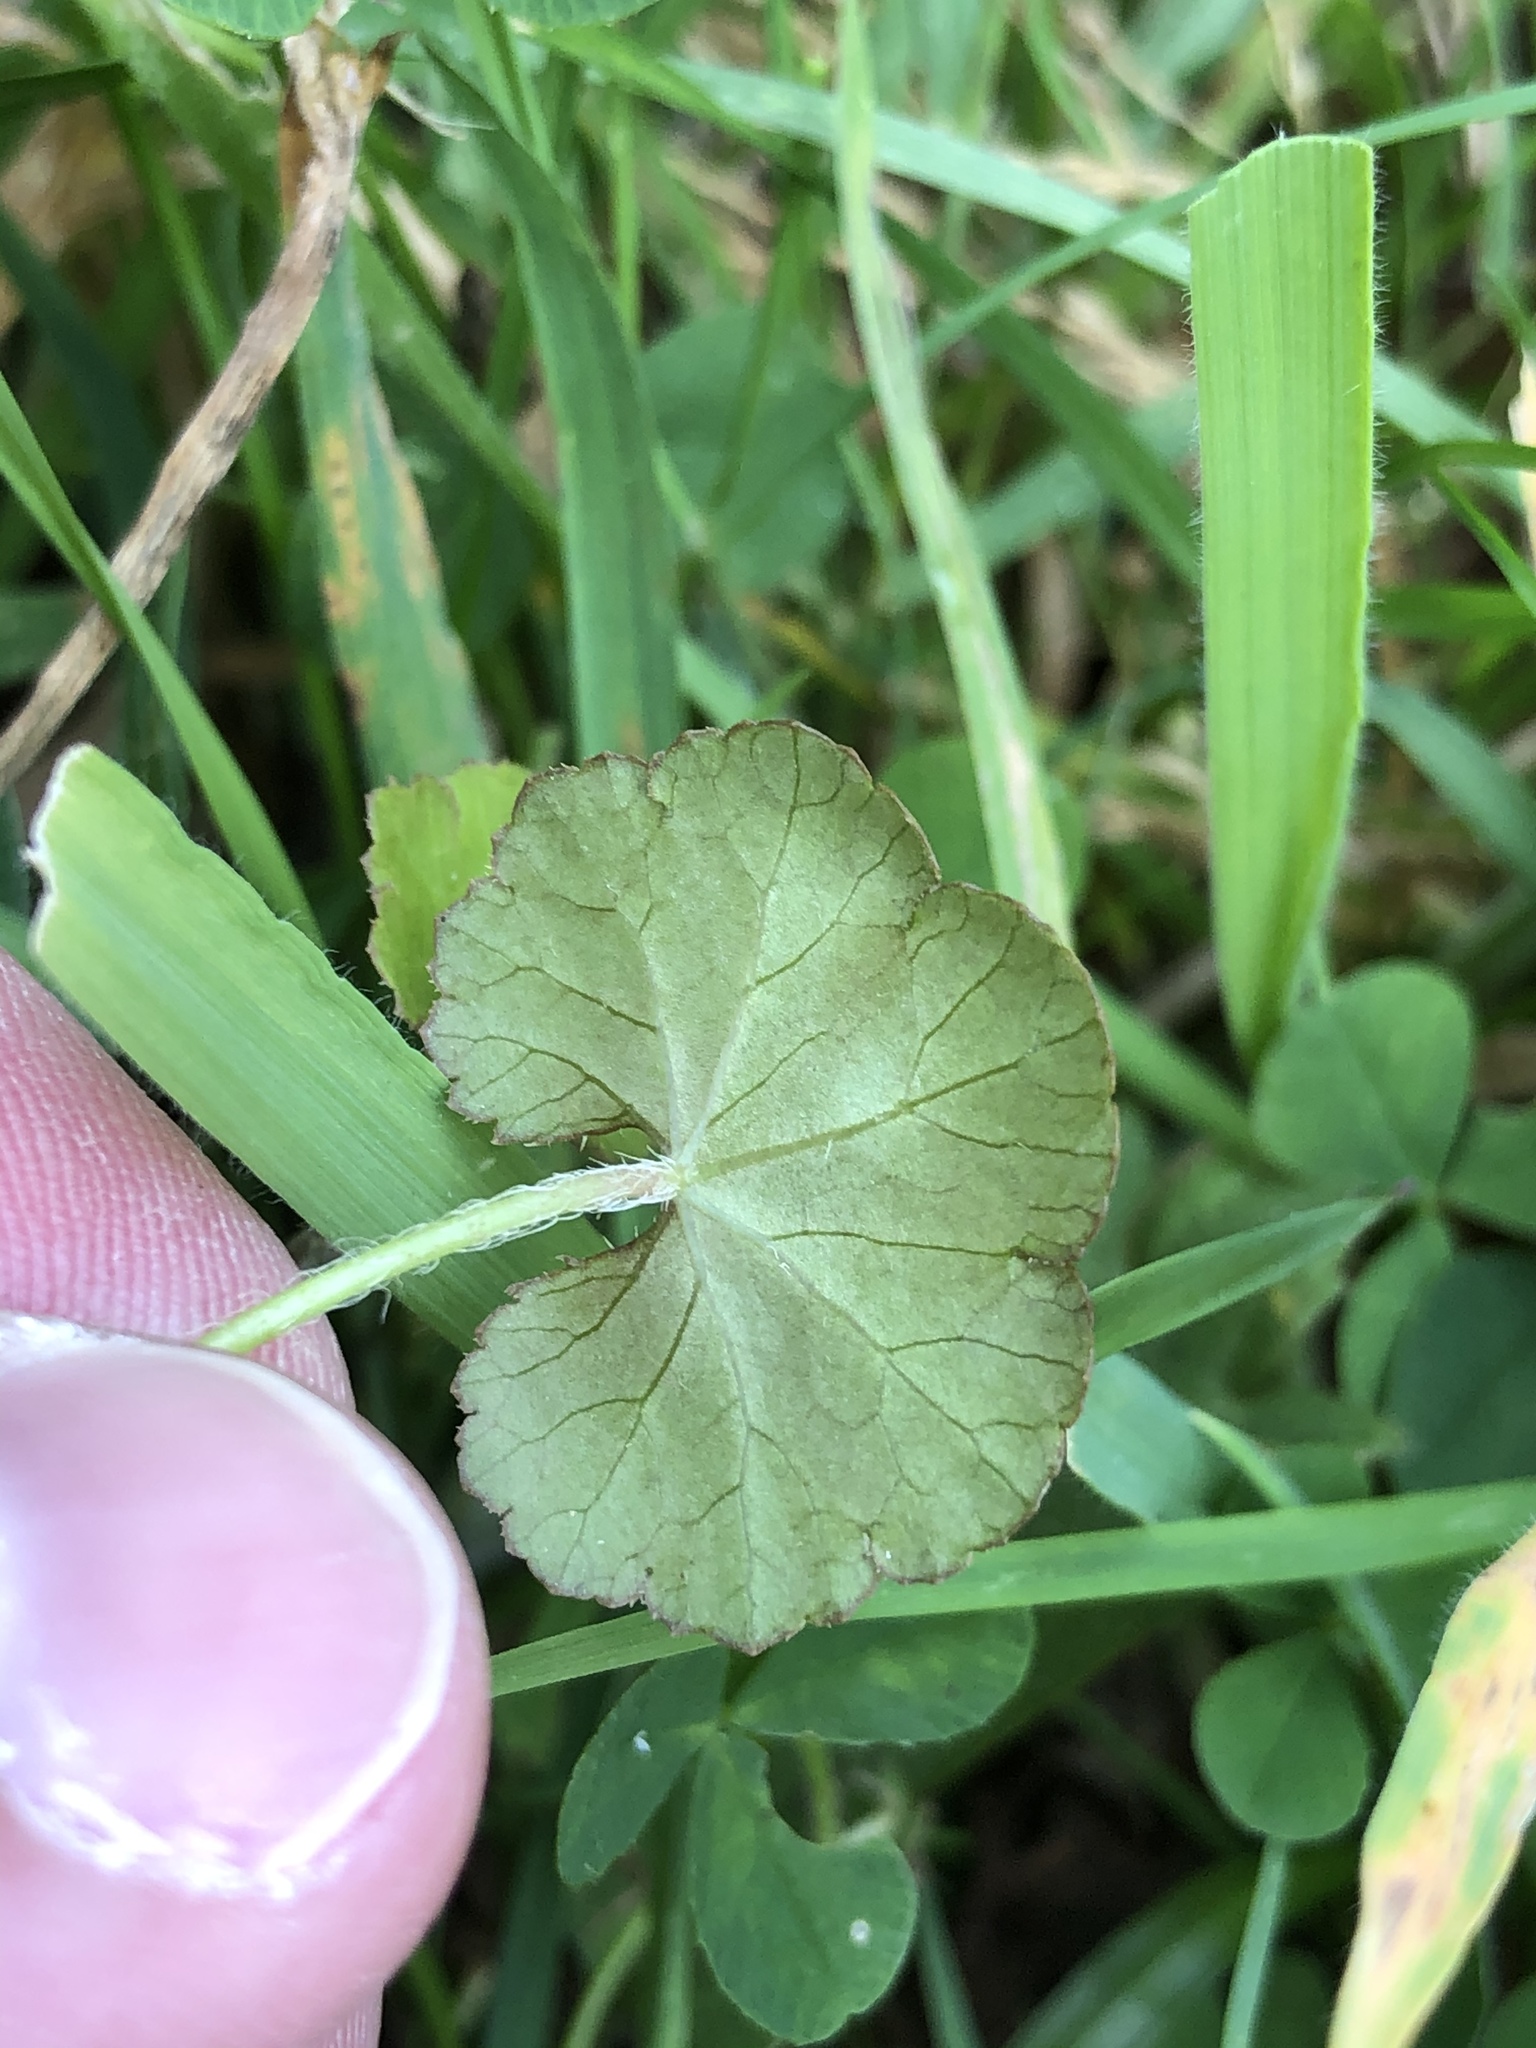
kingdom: Plantae
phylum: Tracheophyta
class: Magnoliopsida
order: Apiales
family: Araliaceae
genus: Hydrocotyle
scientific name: Hydrocotyle novae-zeelandiae
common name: New zealand pennywort
